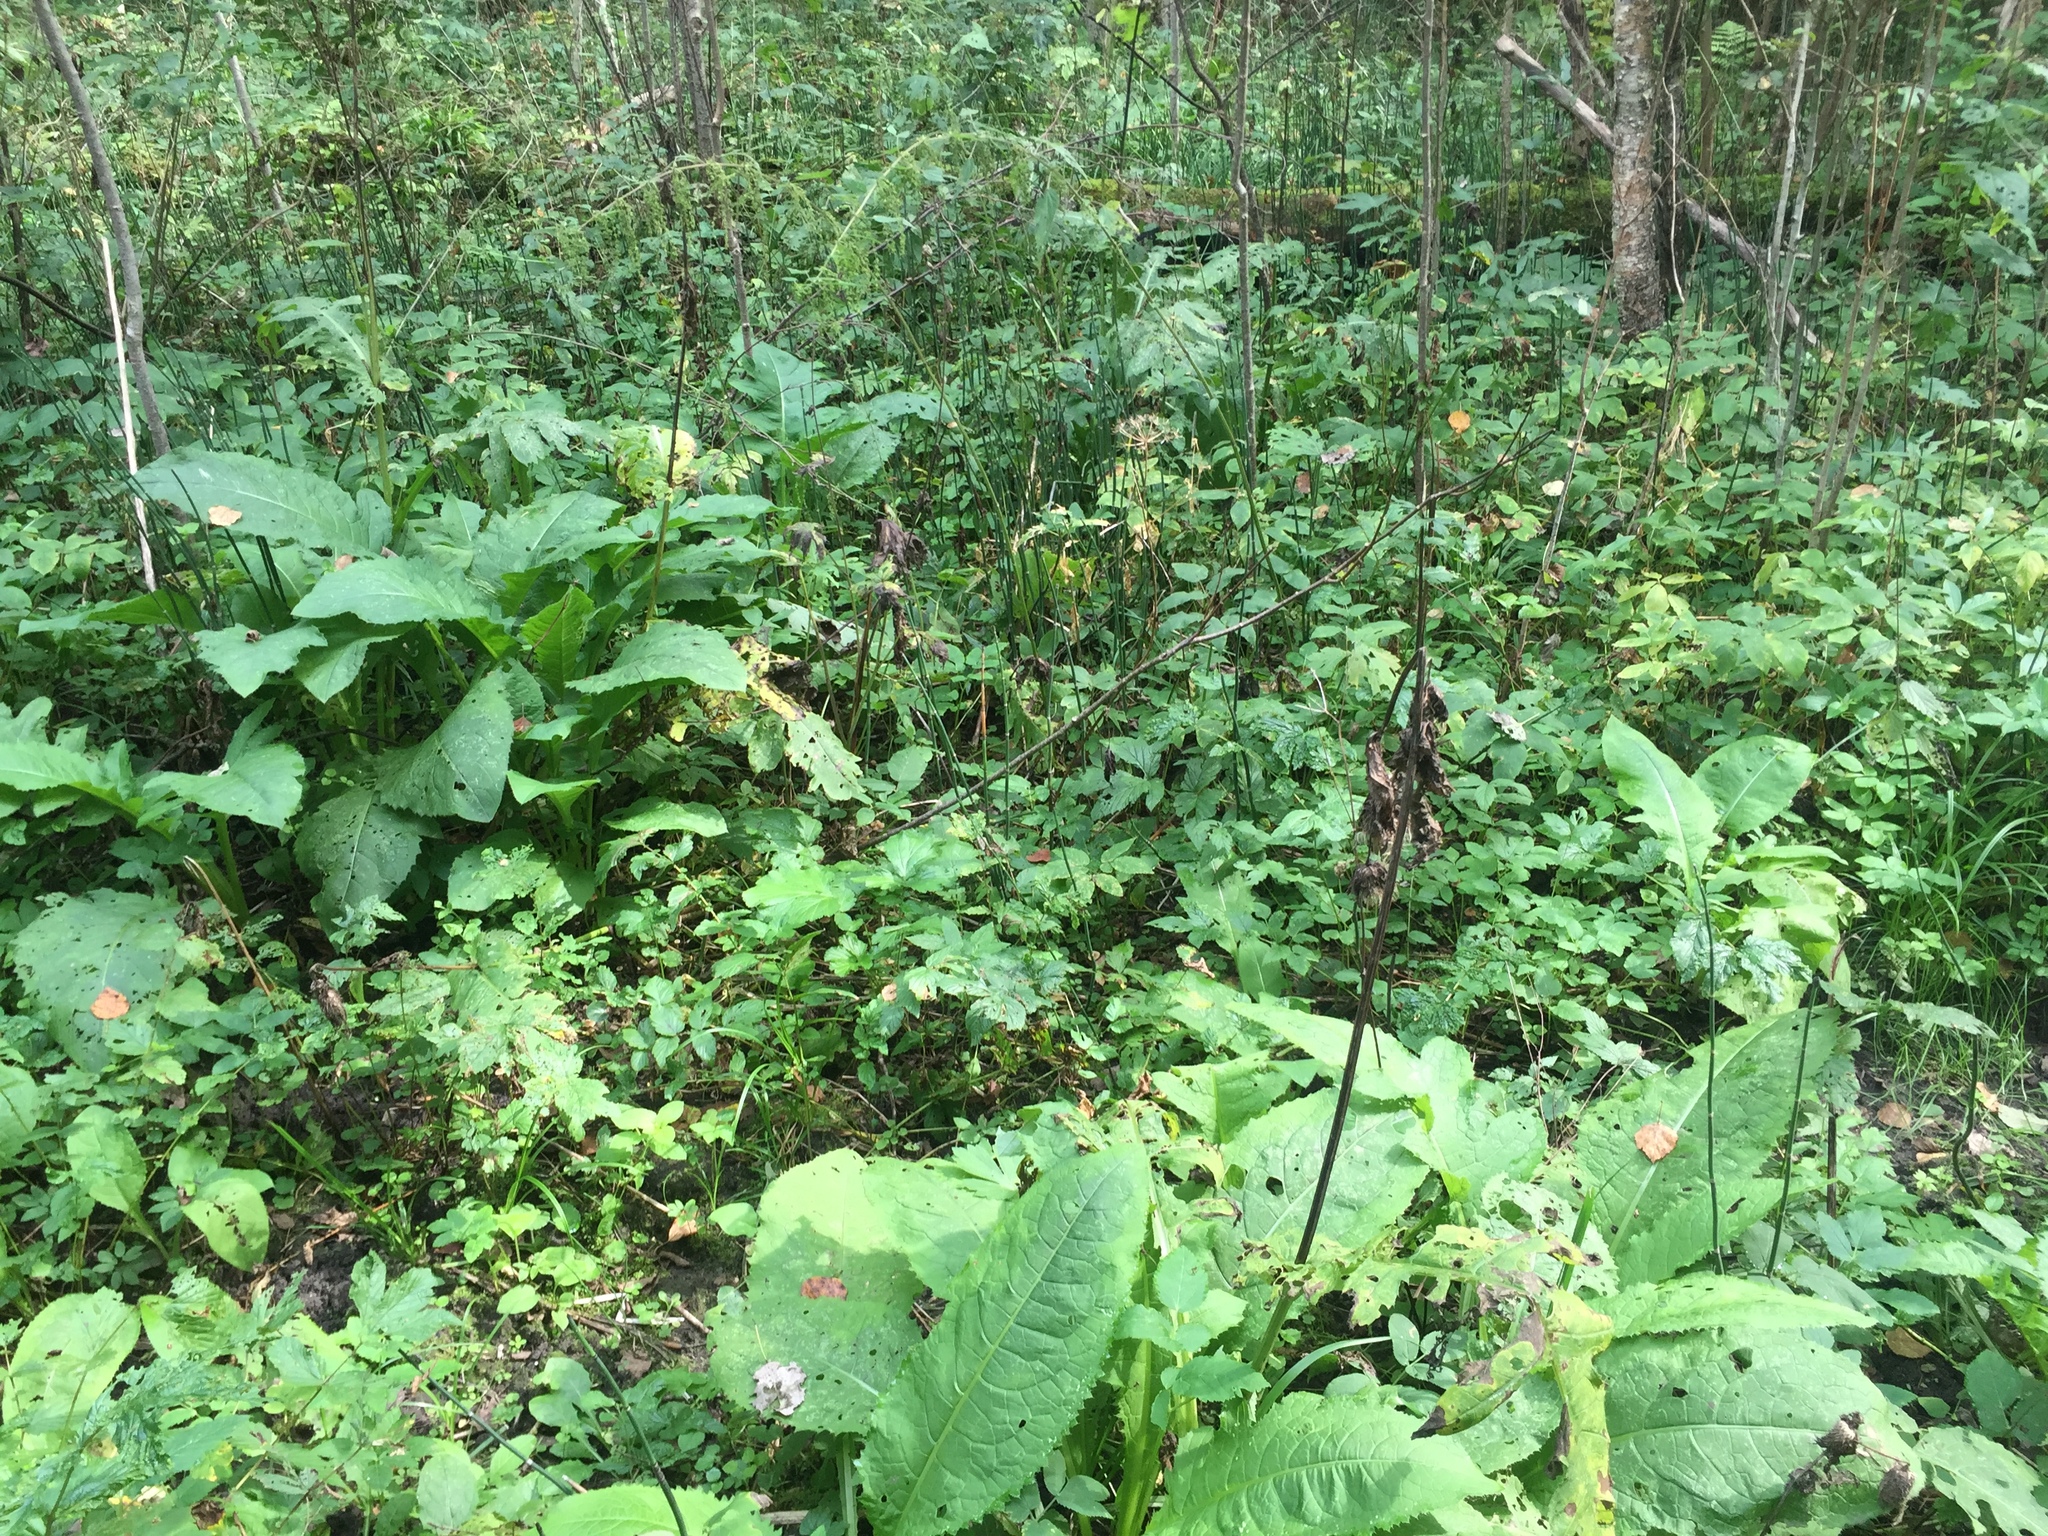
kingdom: Plantae
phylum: Tracheophyta
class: Magnoliopsida
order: Asterales
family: Asteraceae
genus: Cirsium
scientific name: Cirsium oleraceum
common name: Cabbage thistle
